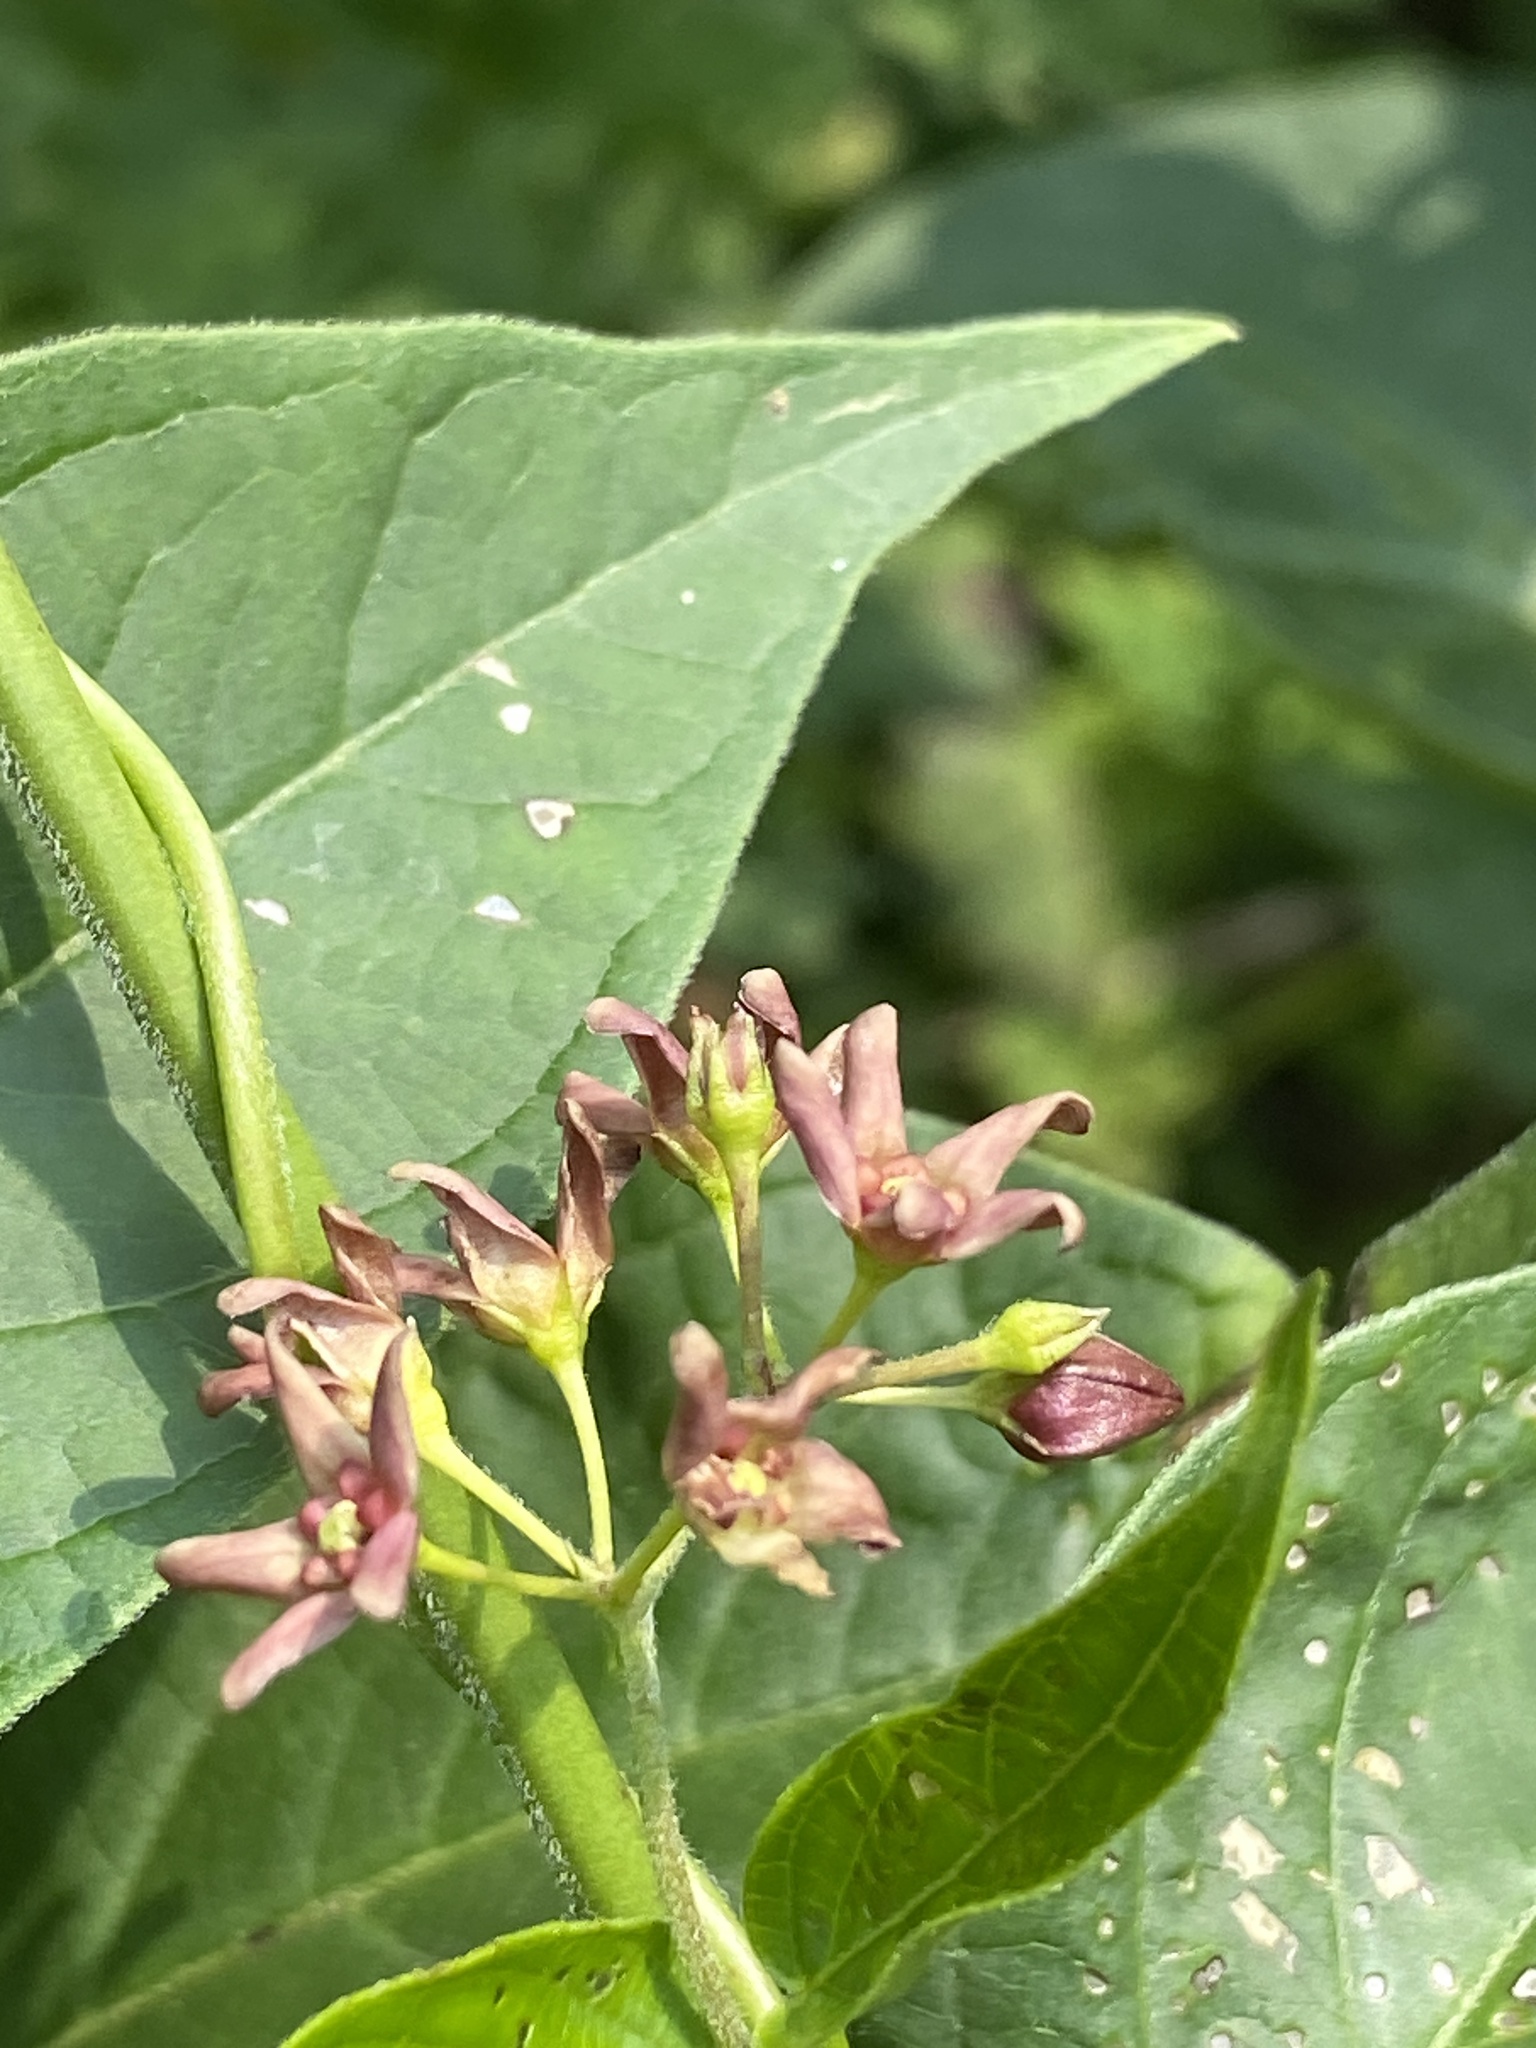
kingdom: Plantae
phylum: Tracheophyta
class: Magnoliopsida
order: Gentianales
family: Apocynaceae
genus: Vincetoxicum
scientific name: Vincetoxicum rossicum
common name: Dog-strangling vine
